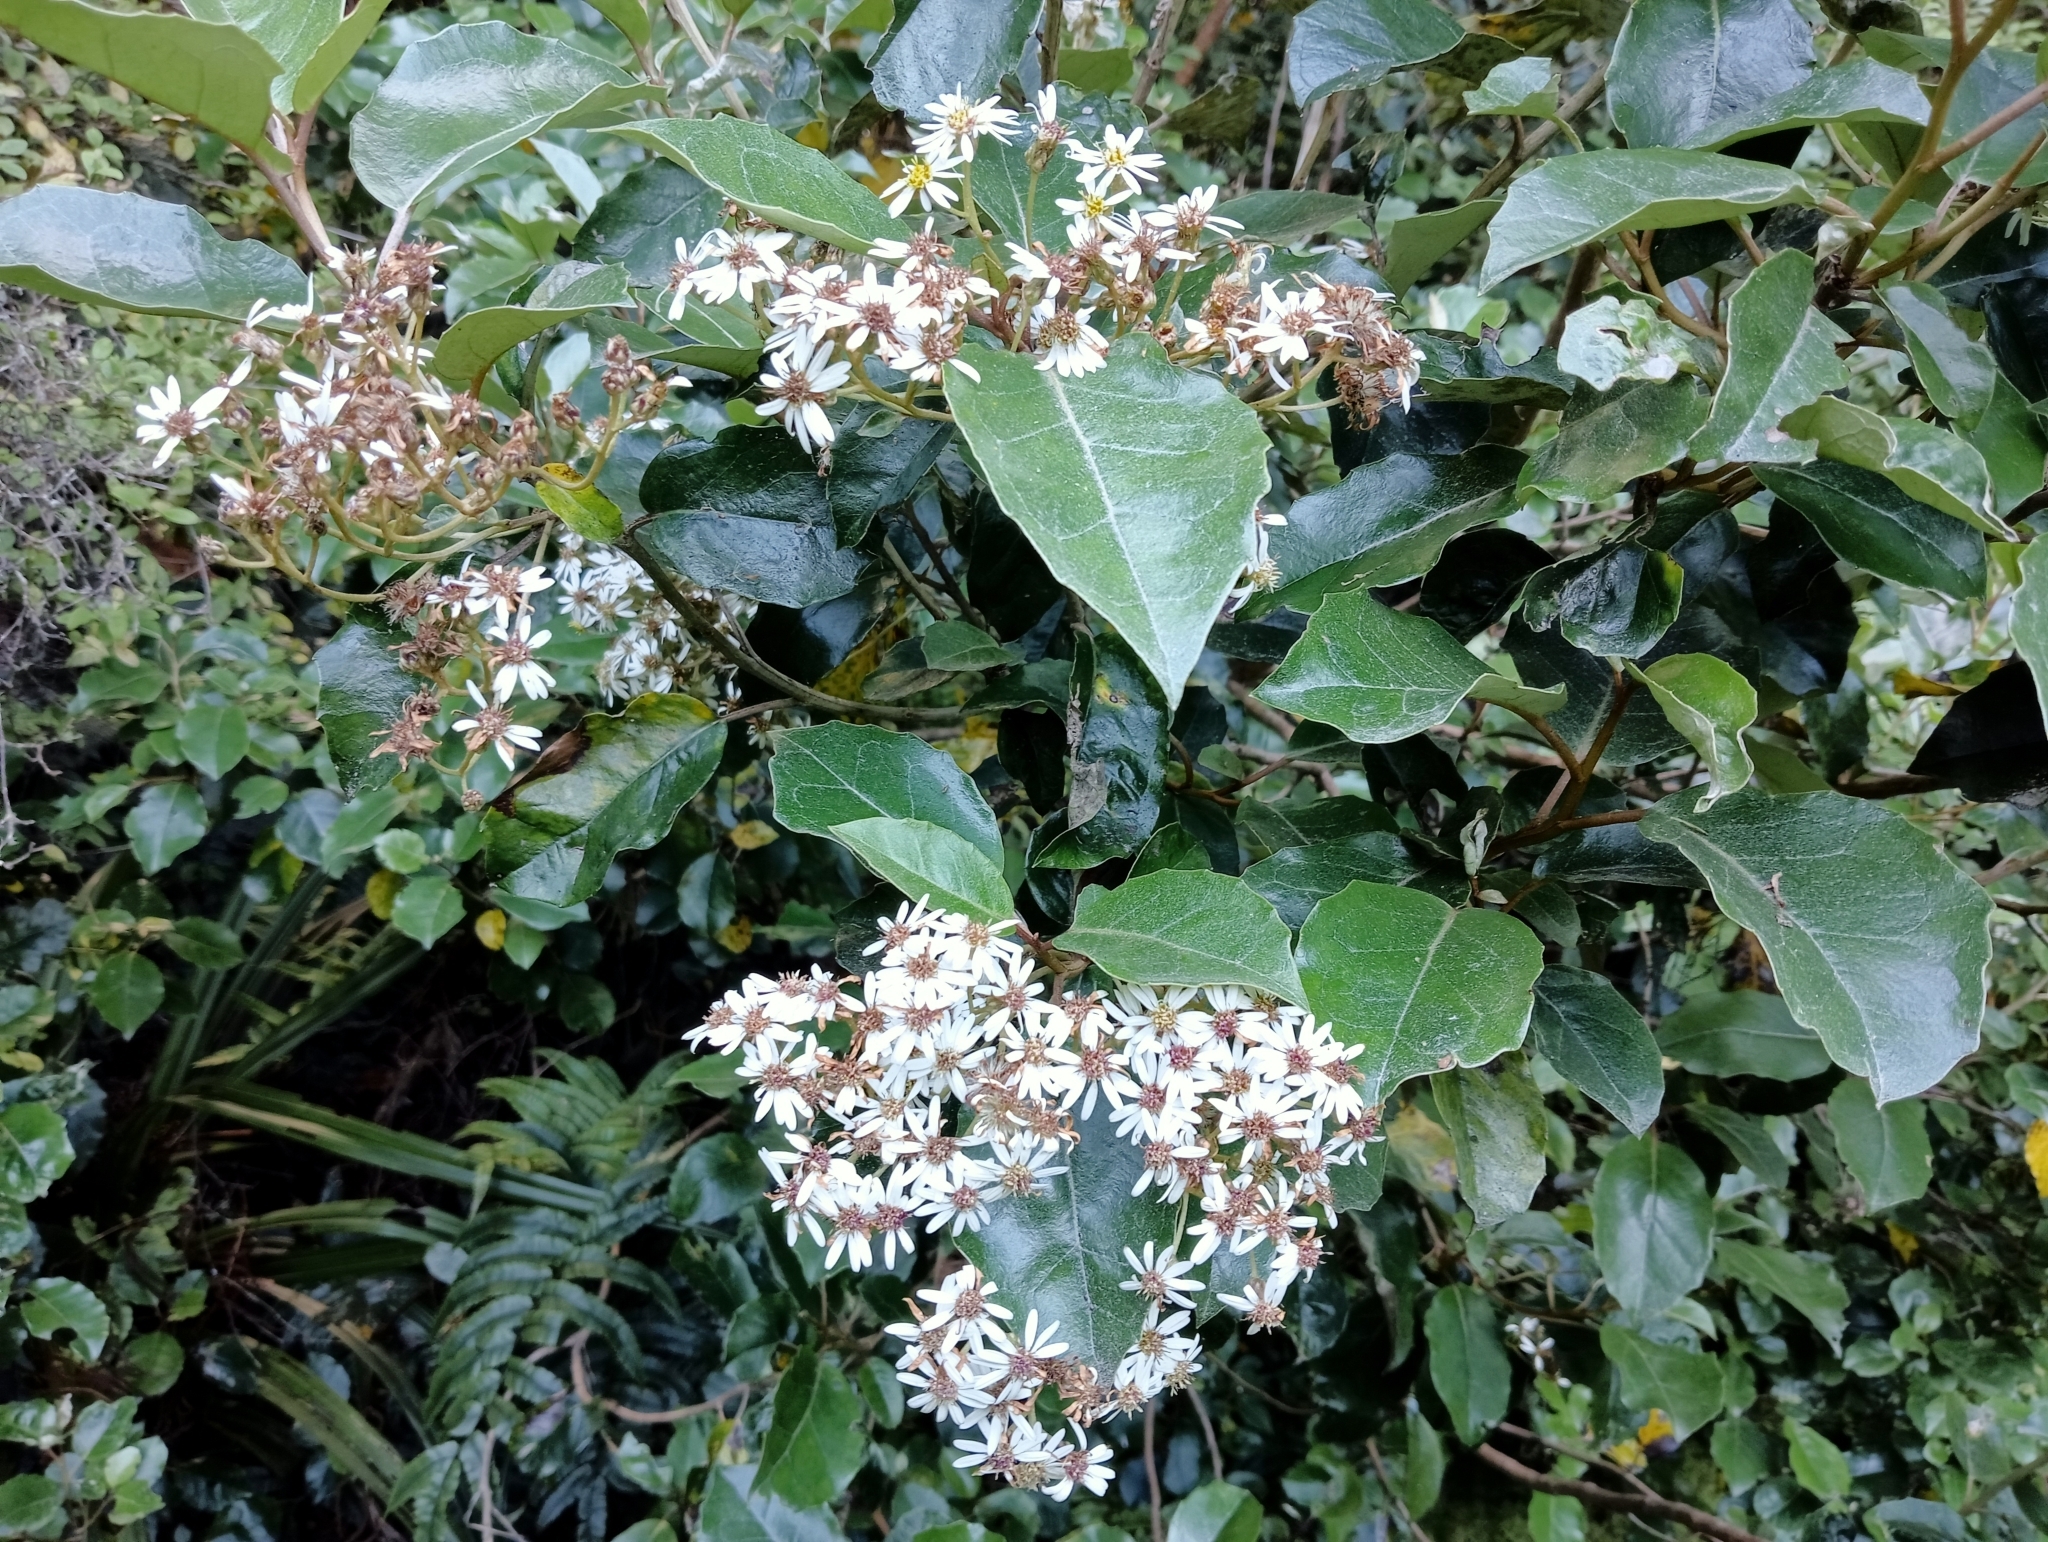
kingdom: Plantae
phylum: Tracheophyta
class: Magnoliopsida
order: Asterales
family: Asteraceae
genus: Olearia
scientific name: Olearia arborescens
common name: Glossy tree daisy
